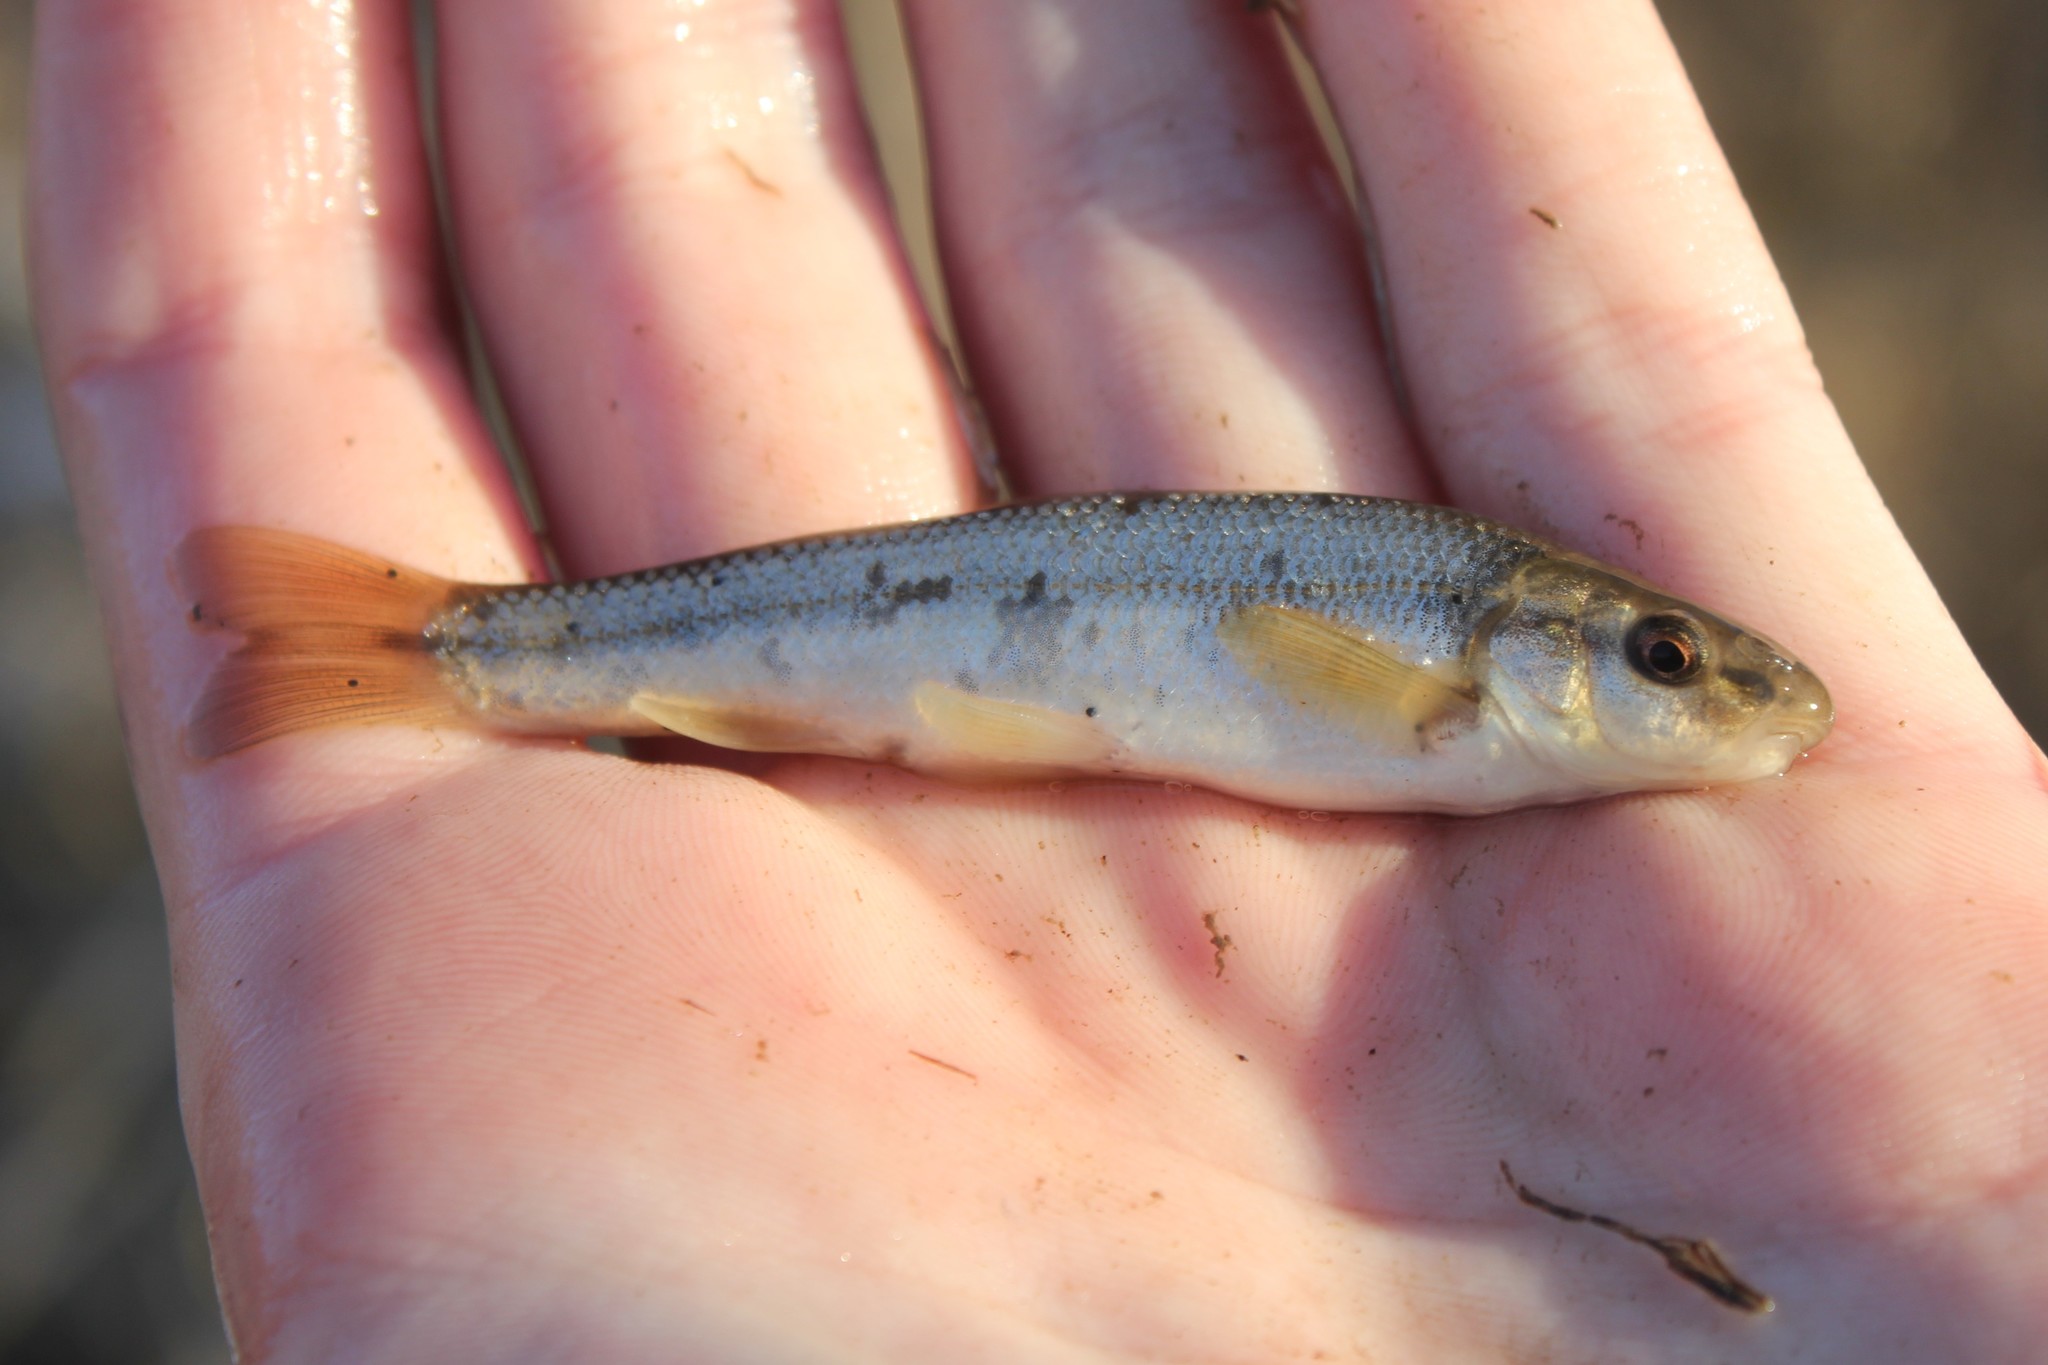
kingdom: Animalia
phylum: Chordata
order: Cypriniformes
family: Cyprinidae
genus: Campostoma
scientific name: Campostoma anomalum
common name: Central stoneroller
